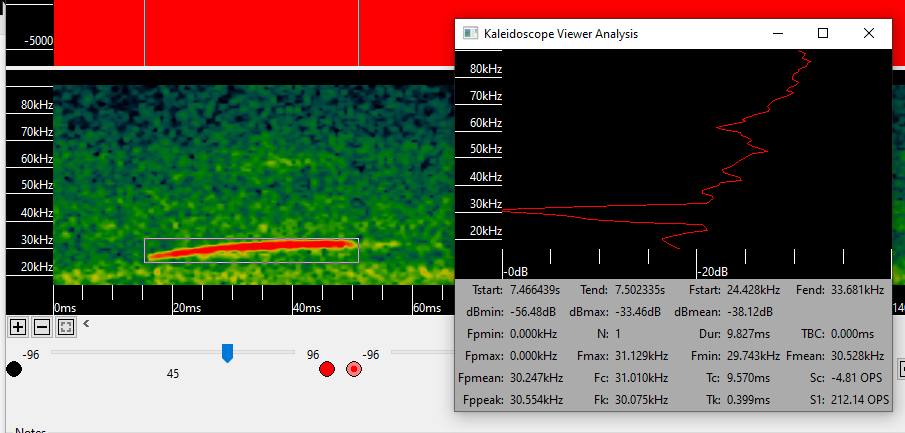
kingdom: Animalia
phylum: Chordata
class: Mammalia
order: Chiroptera
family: Molossidae
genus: Promops
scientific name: Promops centralis
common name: Big crested mastiff bat
